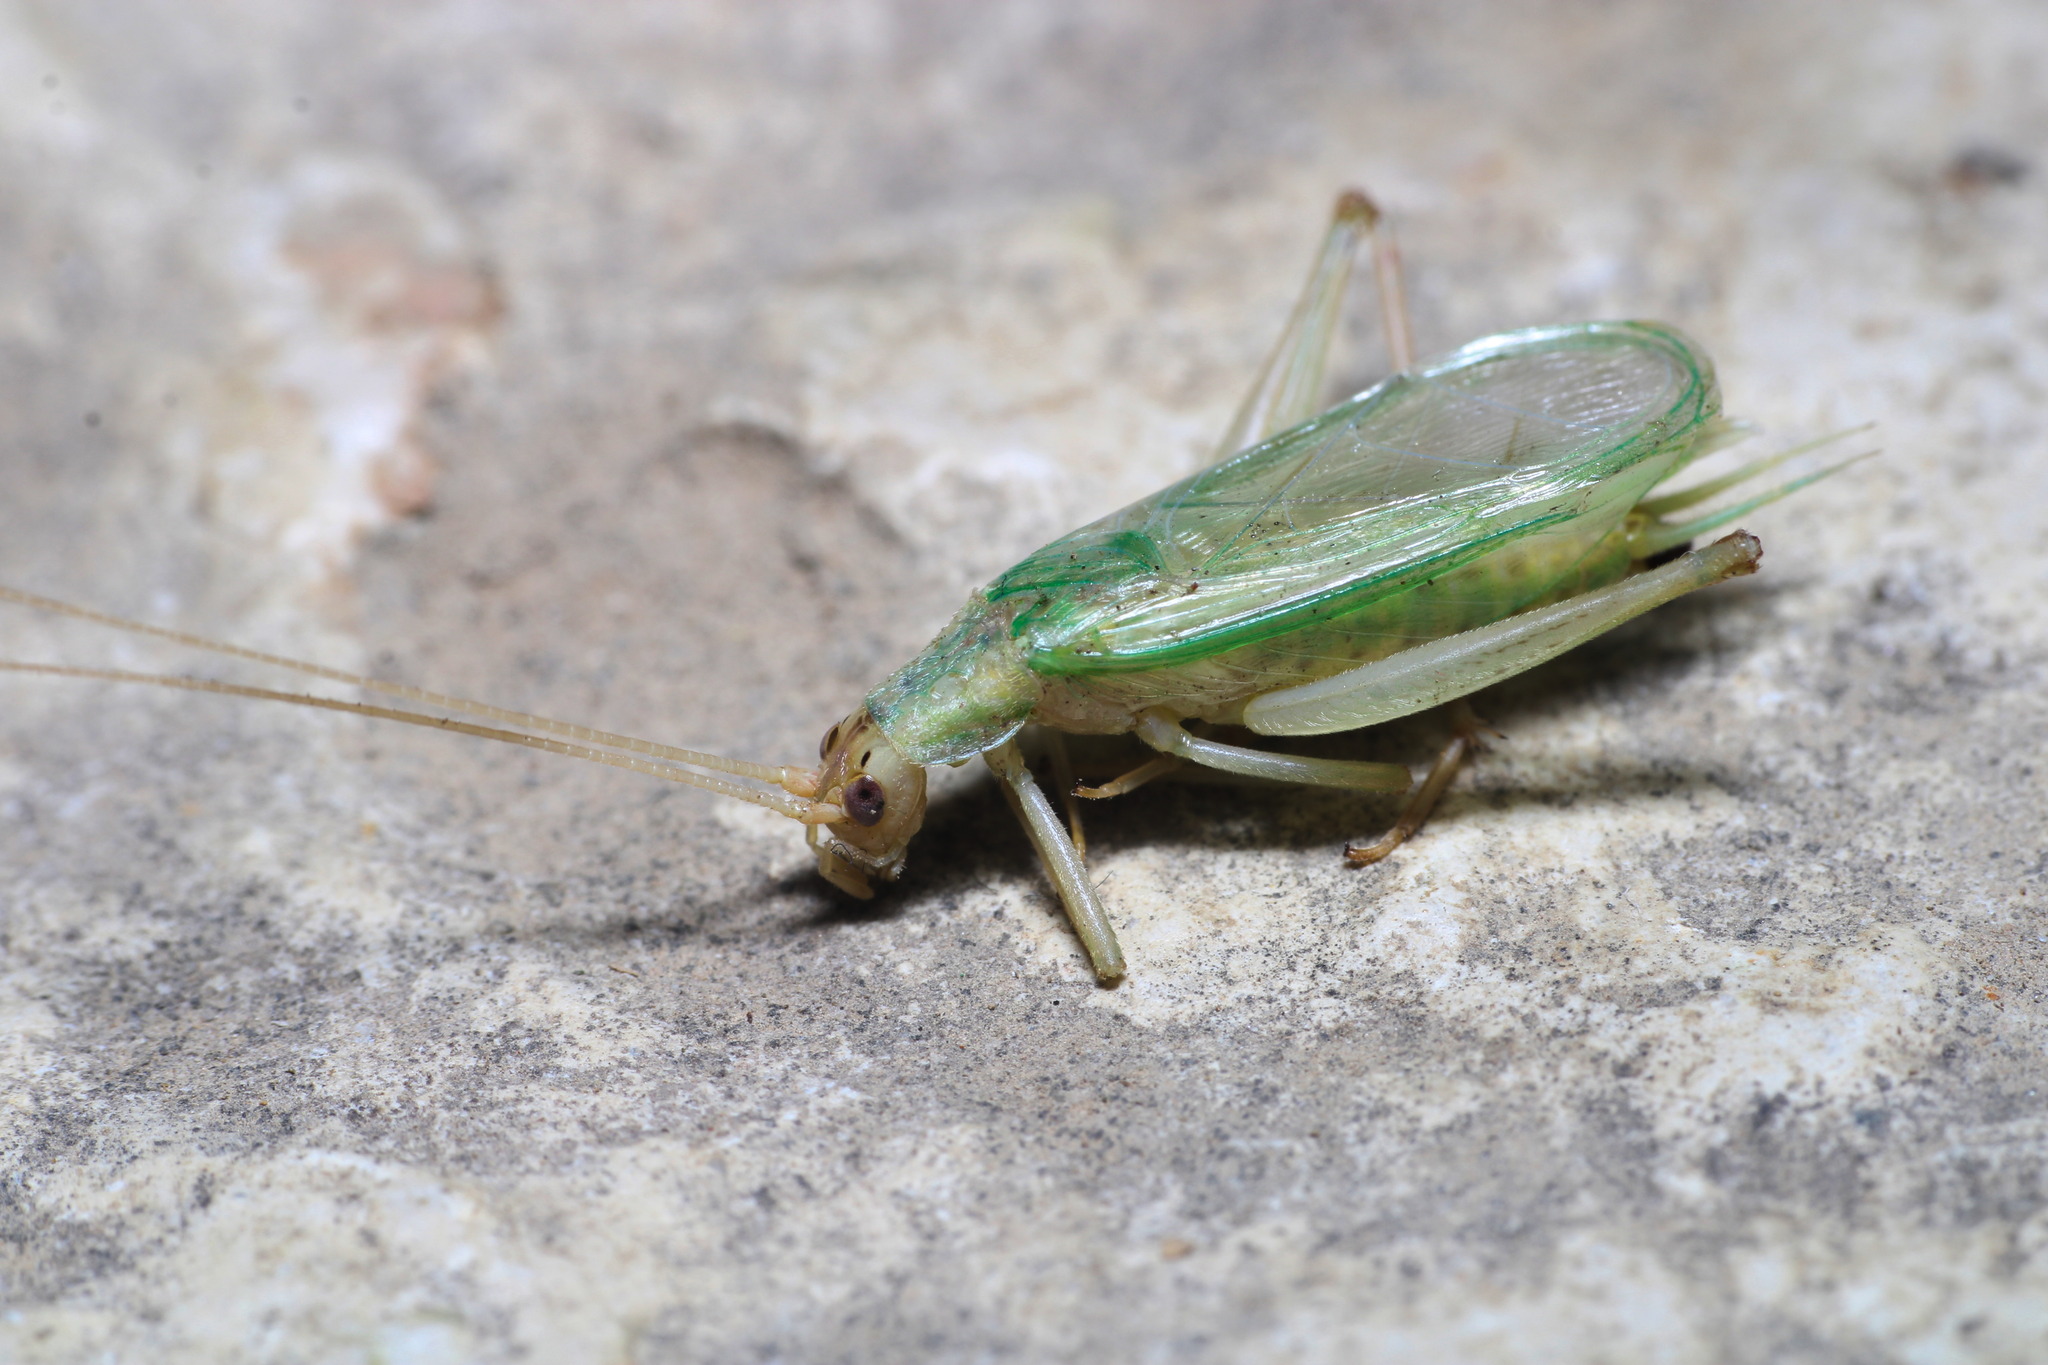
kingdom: Animalia
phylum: Arthropoda
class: Insecta
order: Orthoptera
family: Gryllidae
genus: Oecanthus
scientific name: Oecanthus pellucens
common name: Tree-cricket
